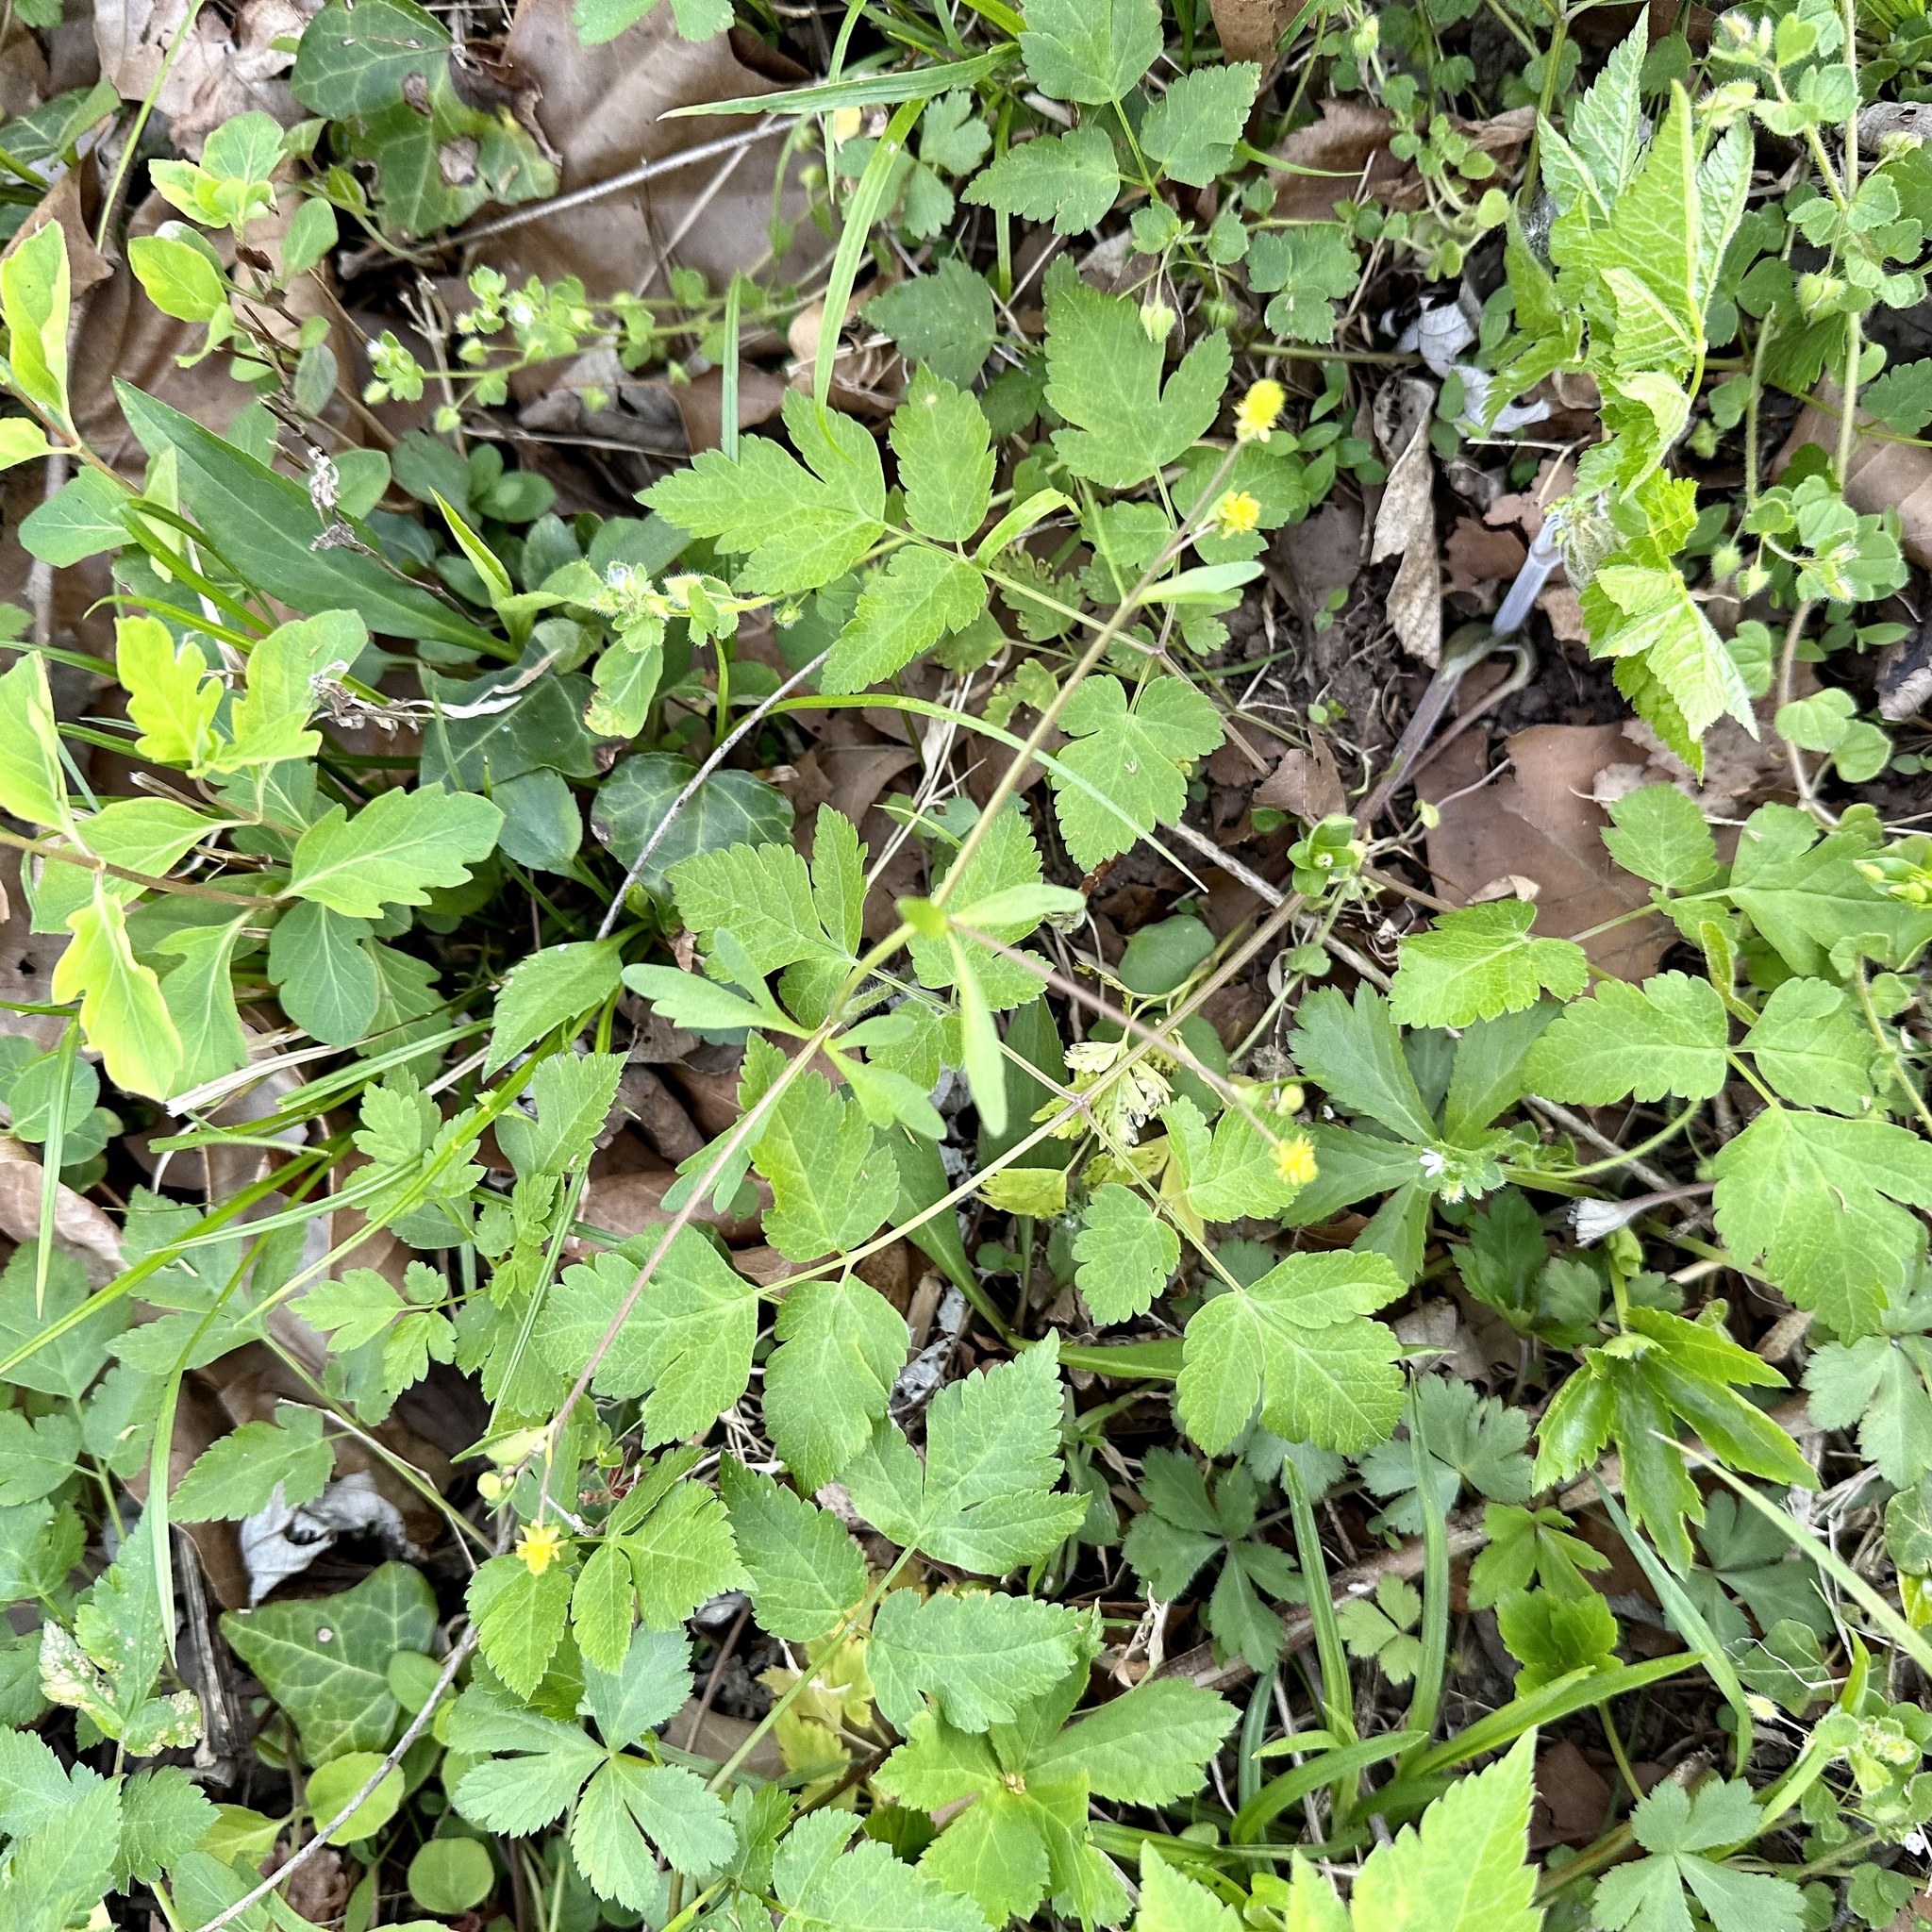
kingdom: Plantae
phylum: Tracheophyta
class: Magnoliopsida
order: Ranunculales
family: Ranunculaceae
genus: Ranunculus
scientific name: Ranunculus micranthus
